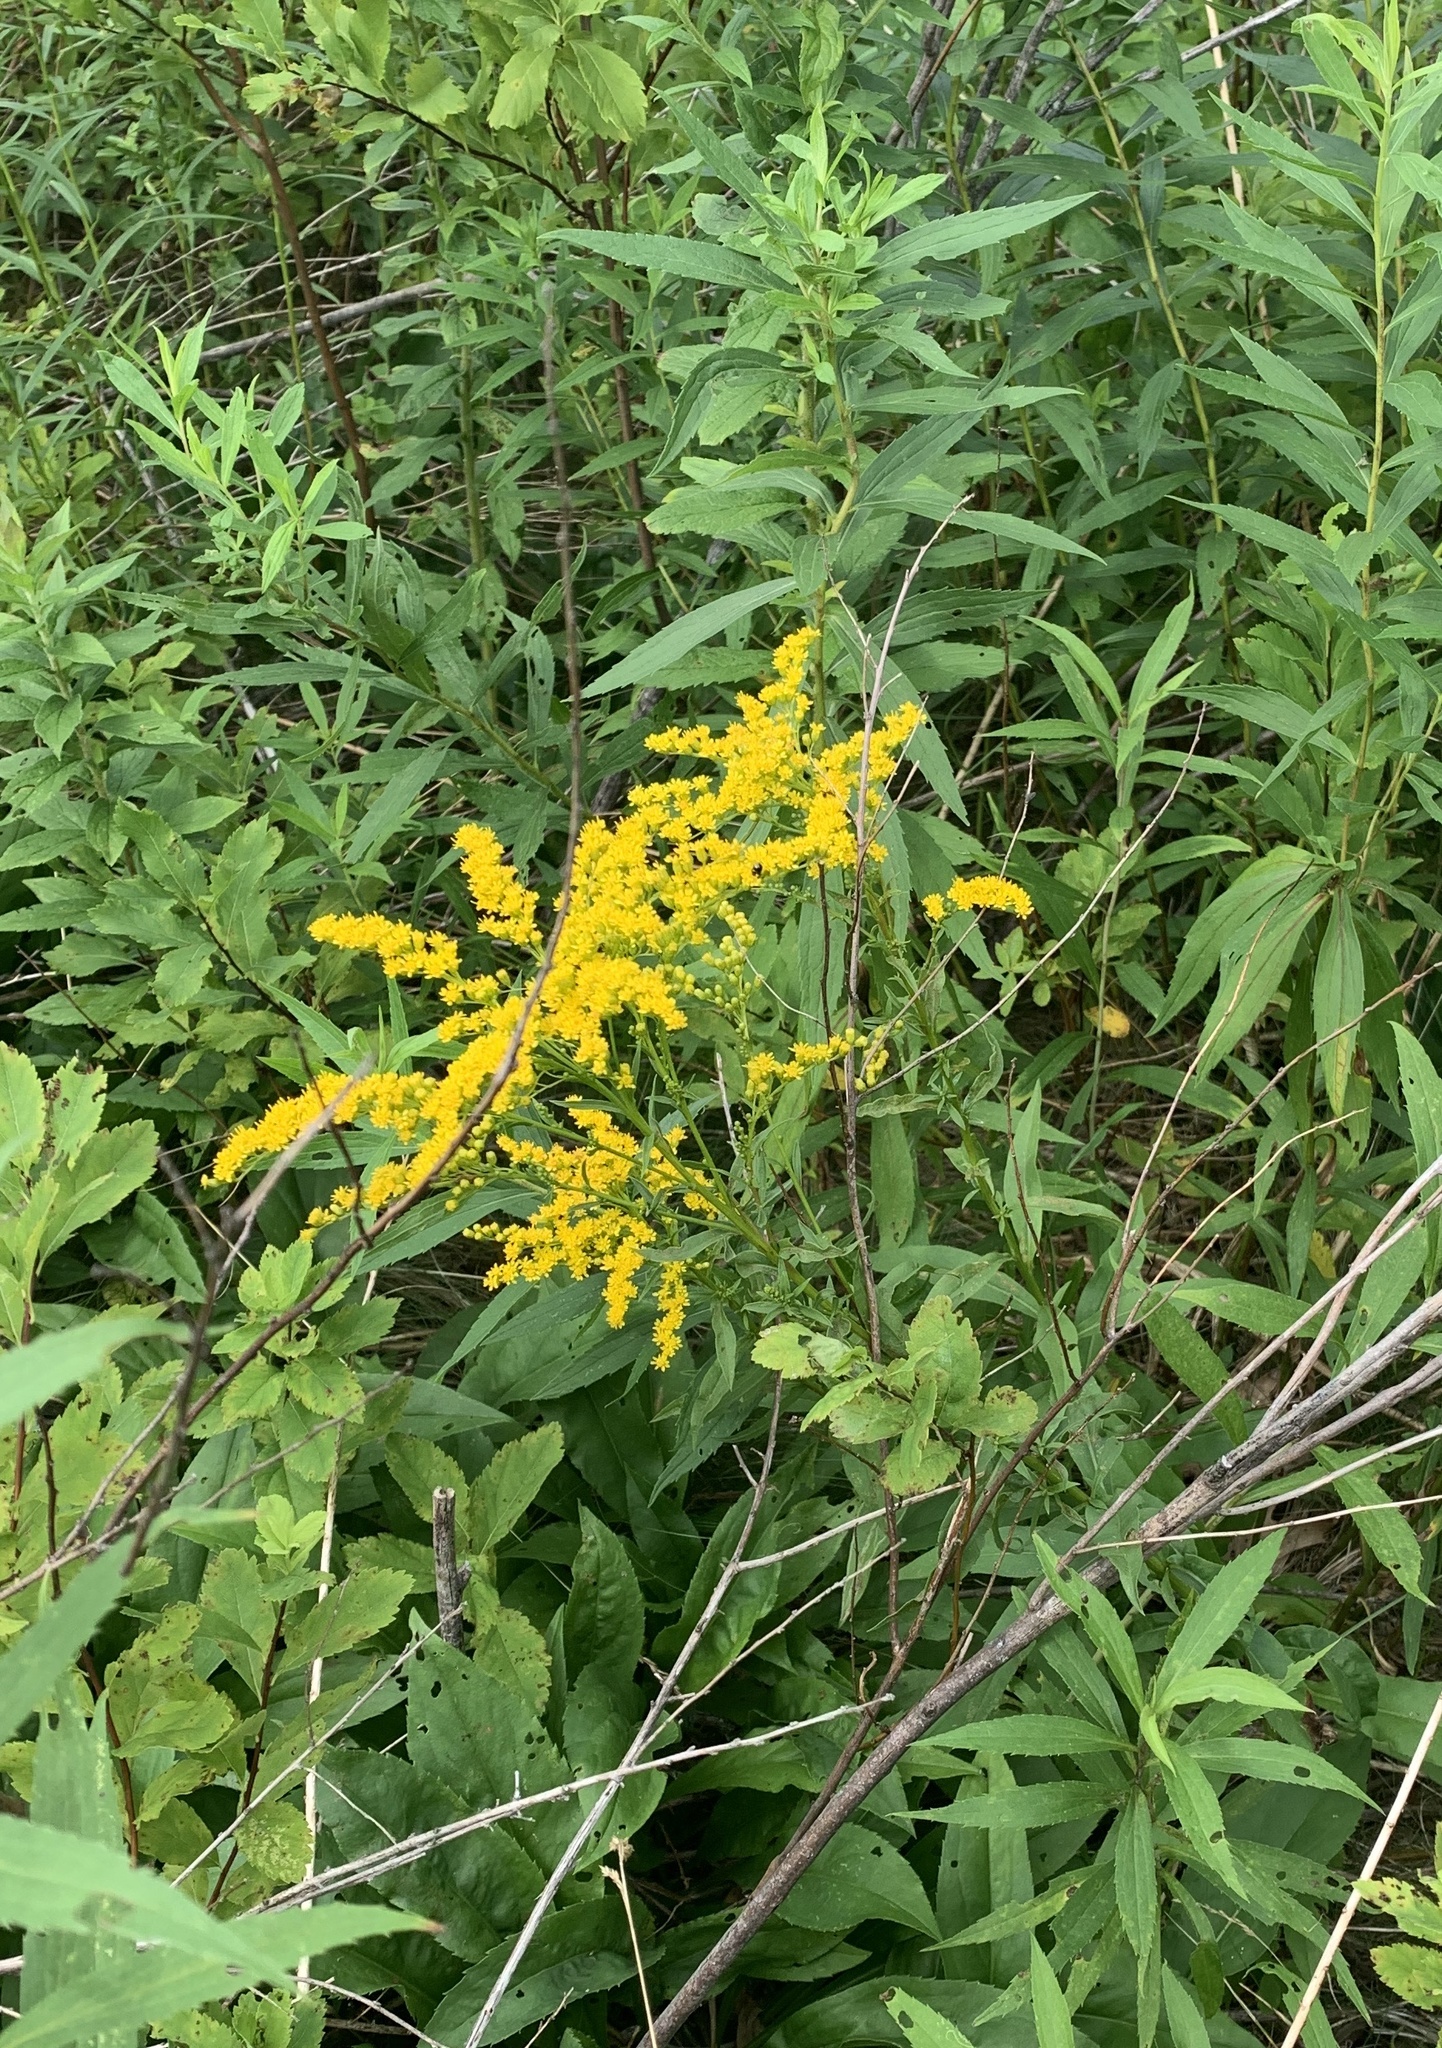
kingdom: Plantae
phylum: Tracheophyta
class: Magnoliopsida
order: Asterales
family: Asteraceae
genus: Solidago
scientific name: Solidago canadensis
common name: Canada goldenrod
